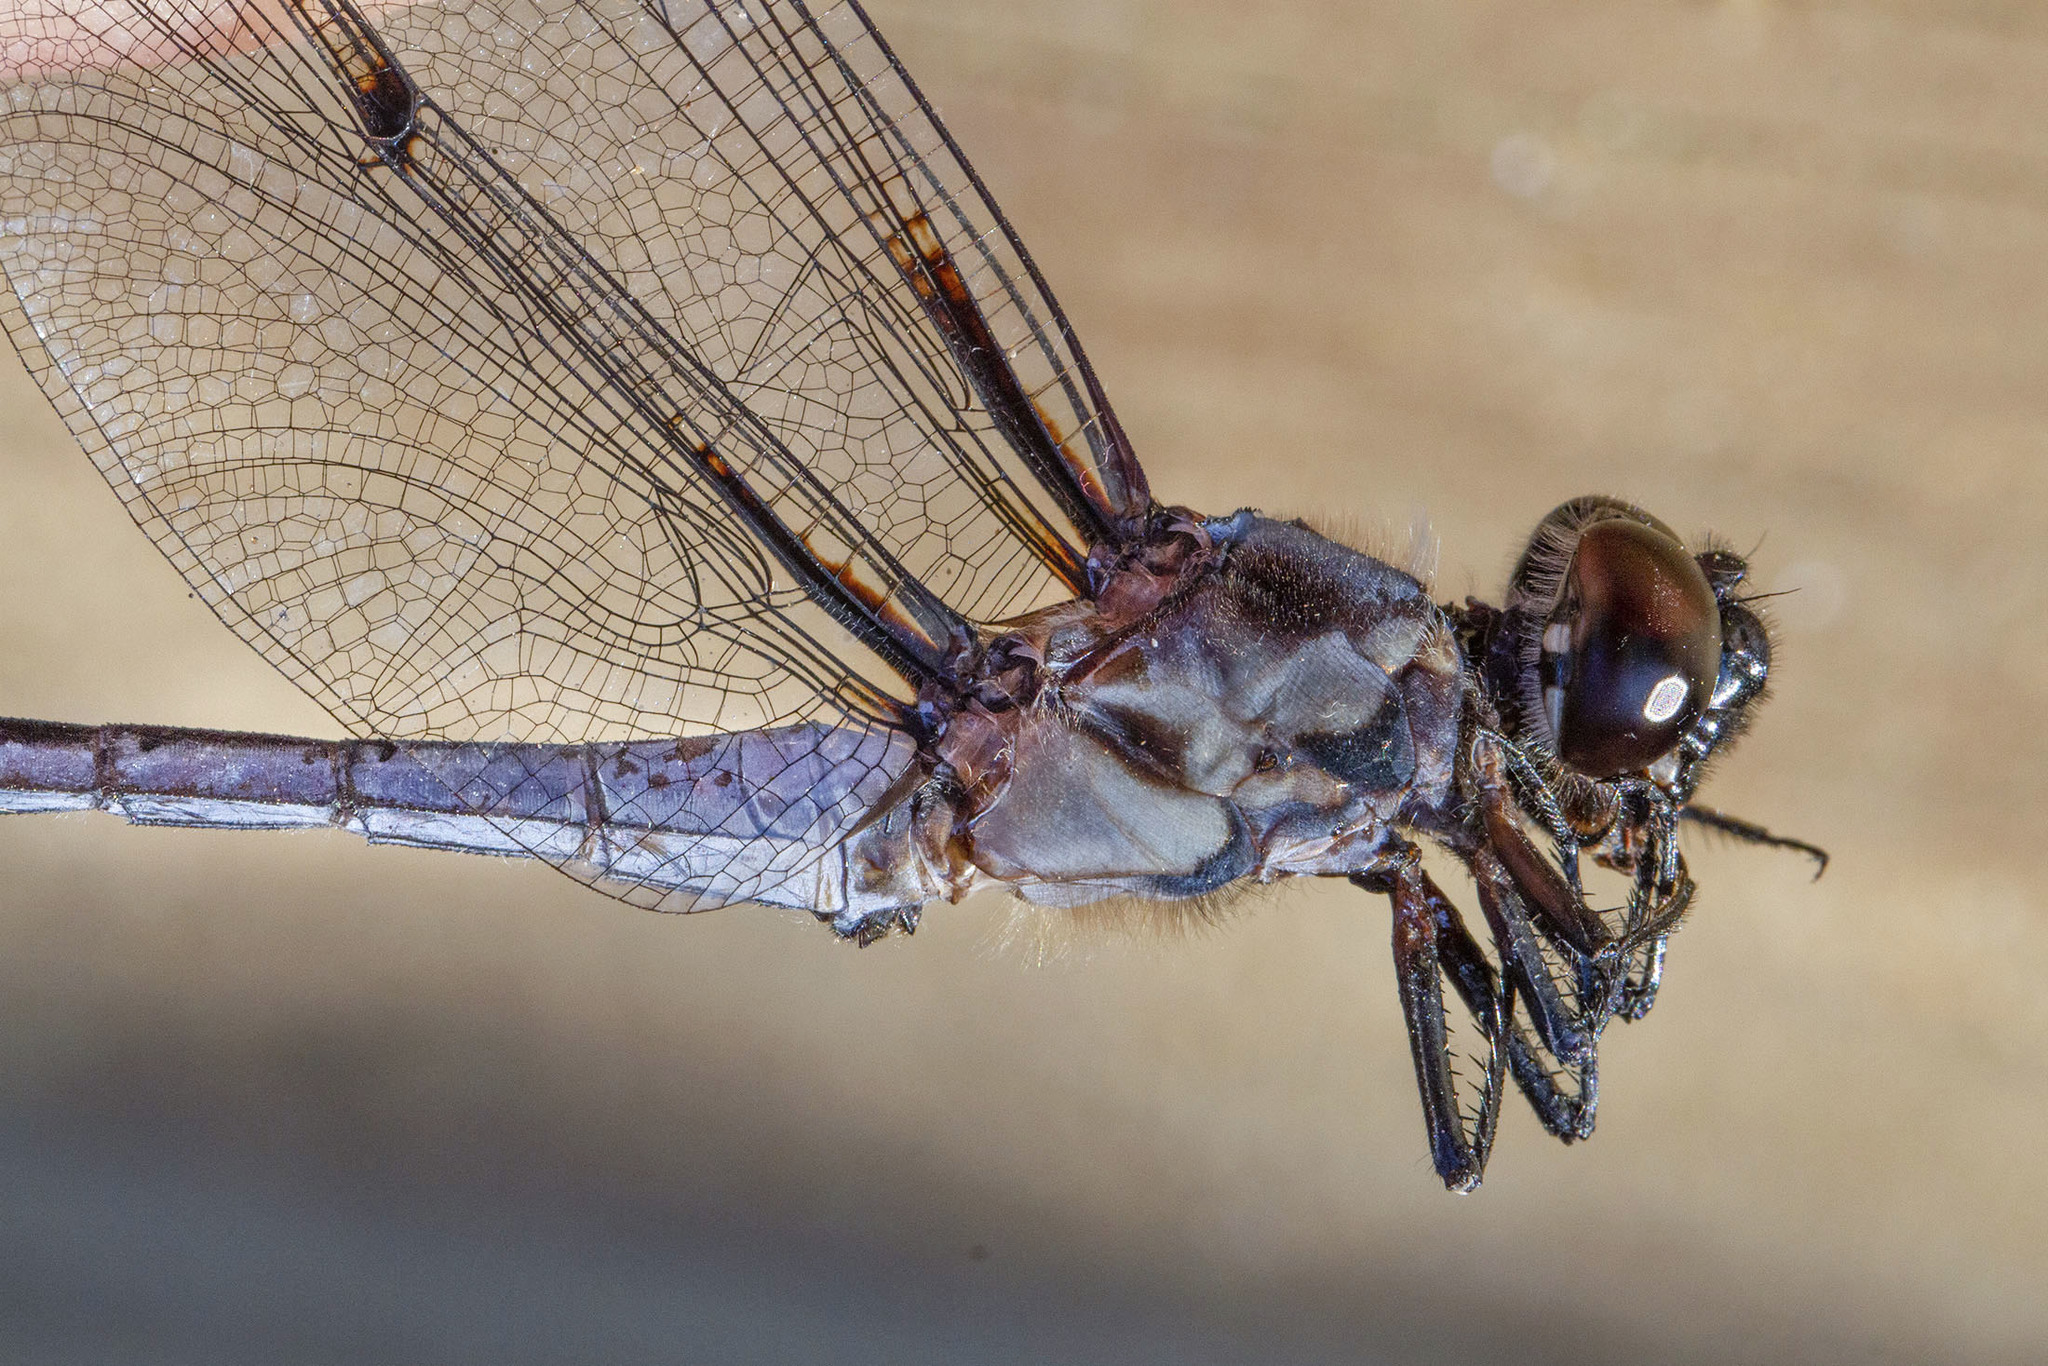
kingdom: Animalia
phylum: Arthropoda
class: Insecta
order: Odonata
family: Libellulidae
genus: Libellula
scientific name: Libellula axilena
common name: Bar-winged skimmer
